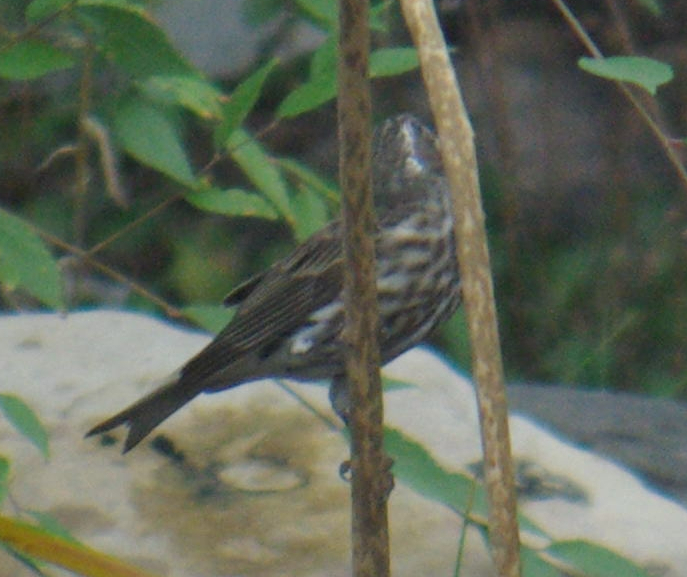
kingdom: Animalia
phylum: Chordata
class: Aves
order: Passeriformes
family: Fringillidae
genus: Haemorhous
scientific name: Haemorhous purpureus
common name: Purple finch
